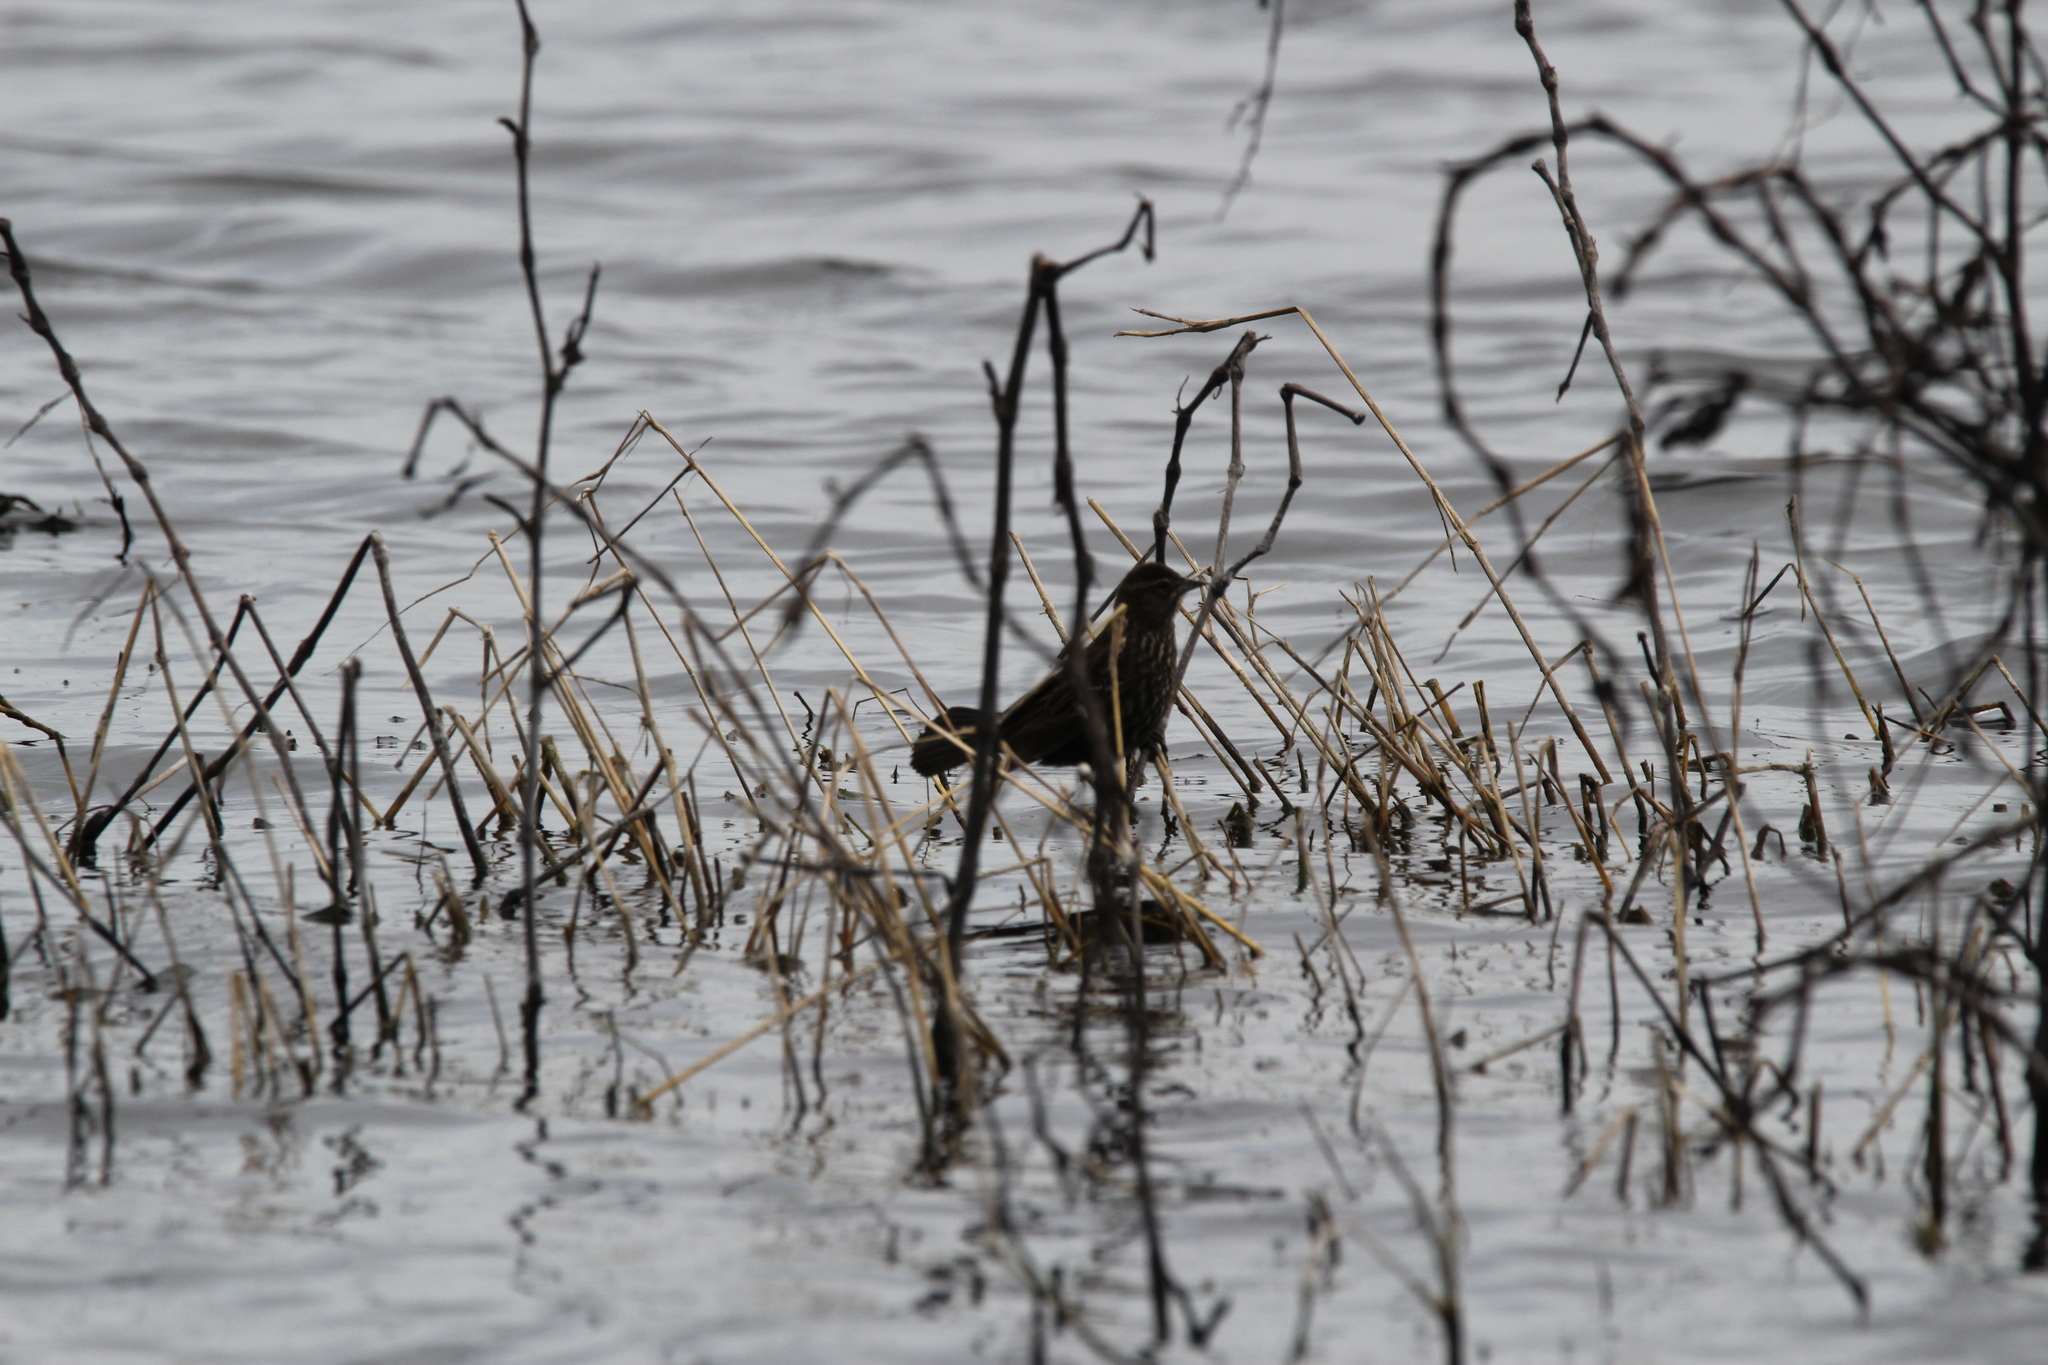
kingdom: Animalia
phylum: Chordata
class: Aves
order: Passeriformes
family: Icteridae
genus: Agelaius
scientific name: Agelaius phoeniceus
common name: Red-winged blackbird
